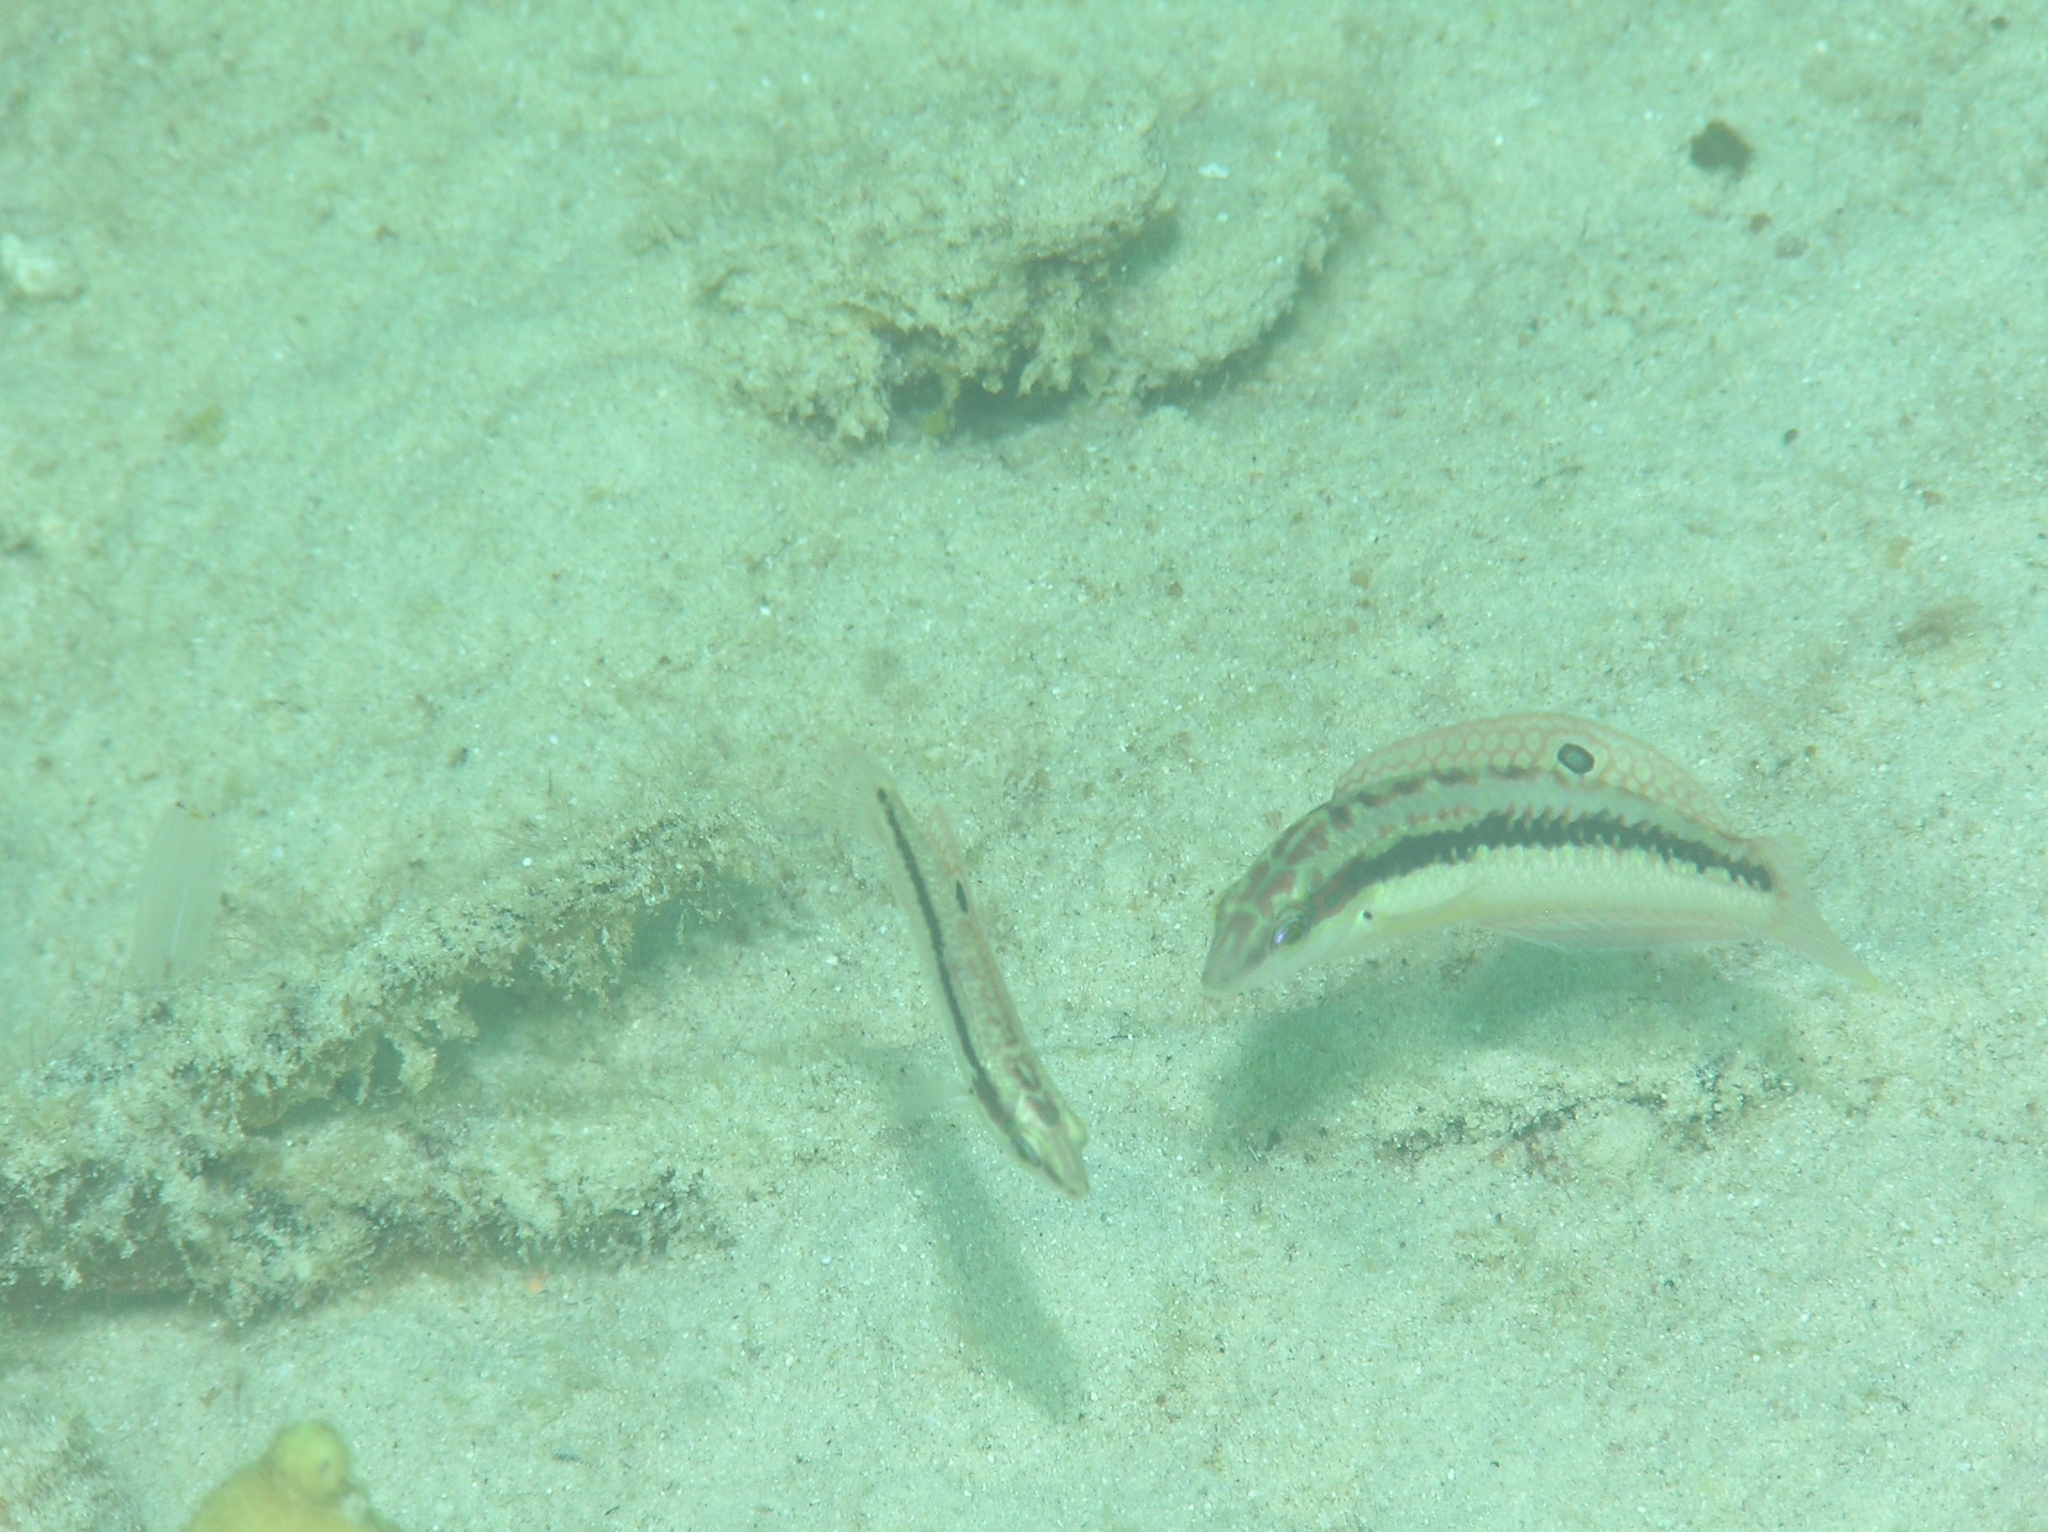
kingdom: Animalia
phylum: Chordata
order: Perciformes
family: Labridae
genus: Halichoeres
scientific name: Halichoeres nigrescens
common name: Bubblefin wrasse
